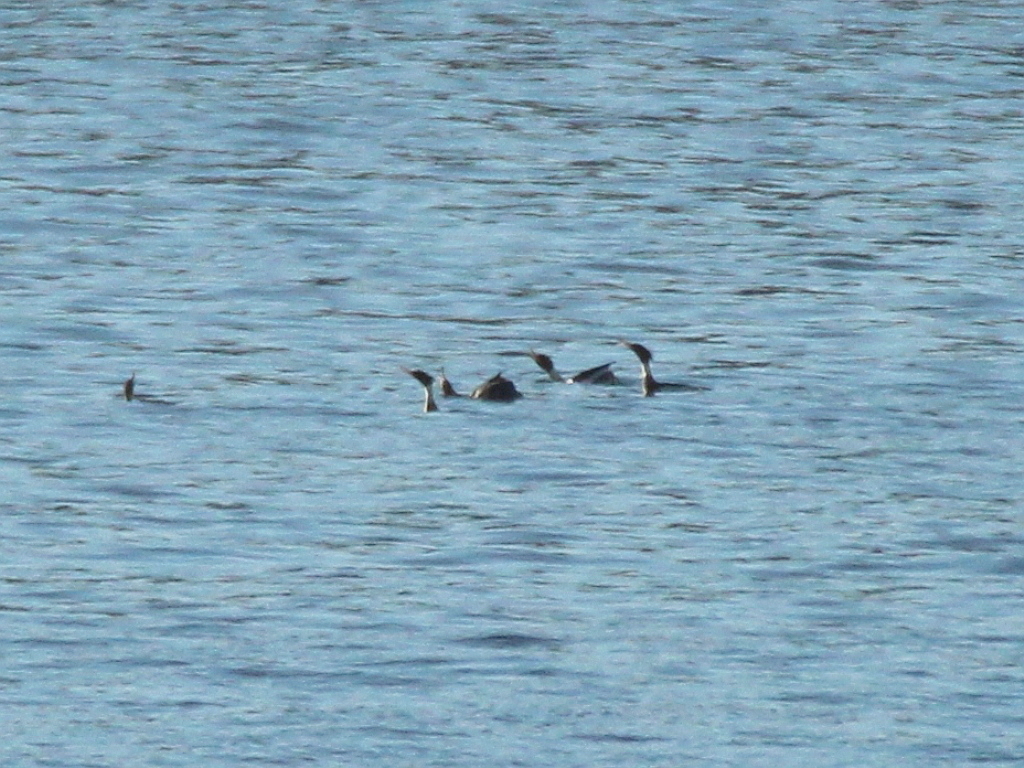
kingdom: Animalia
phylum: Chordata
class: Aves
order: Anseriformes
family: Anatidae
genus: Mergus
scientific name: Mergus serrator
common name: Red-breasted merganser
